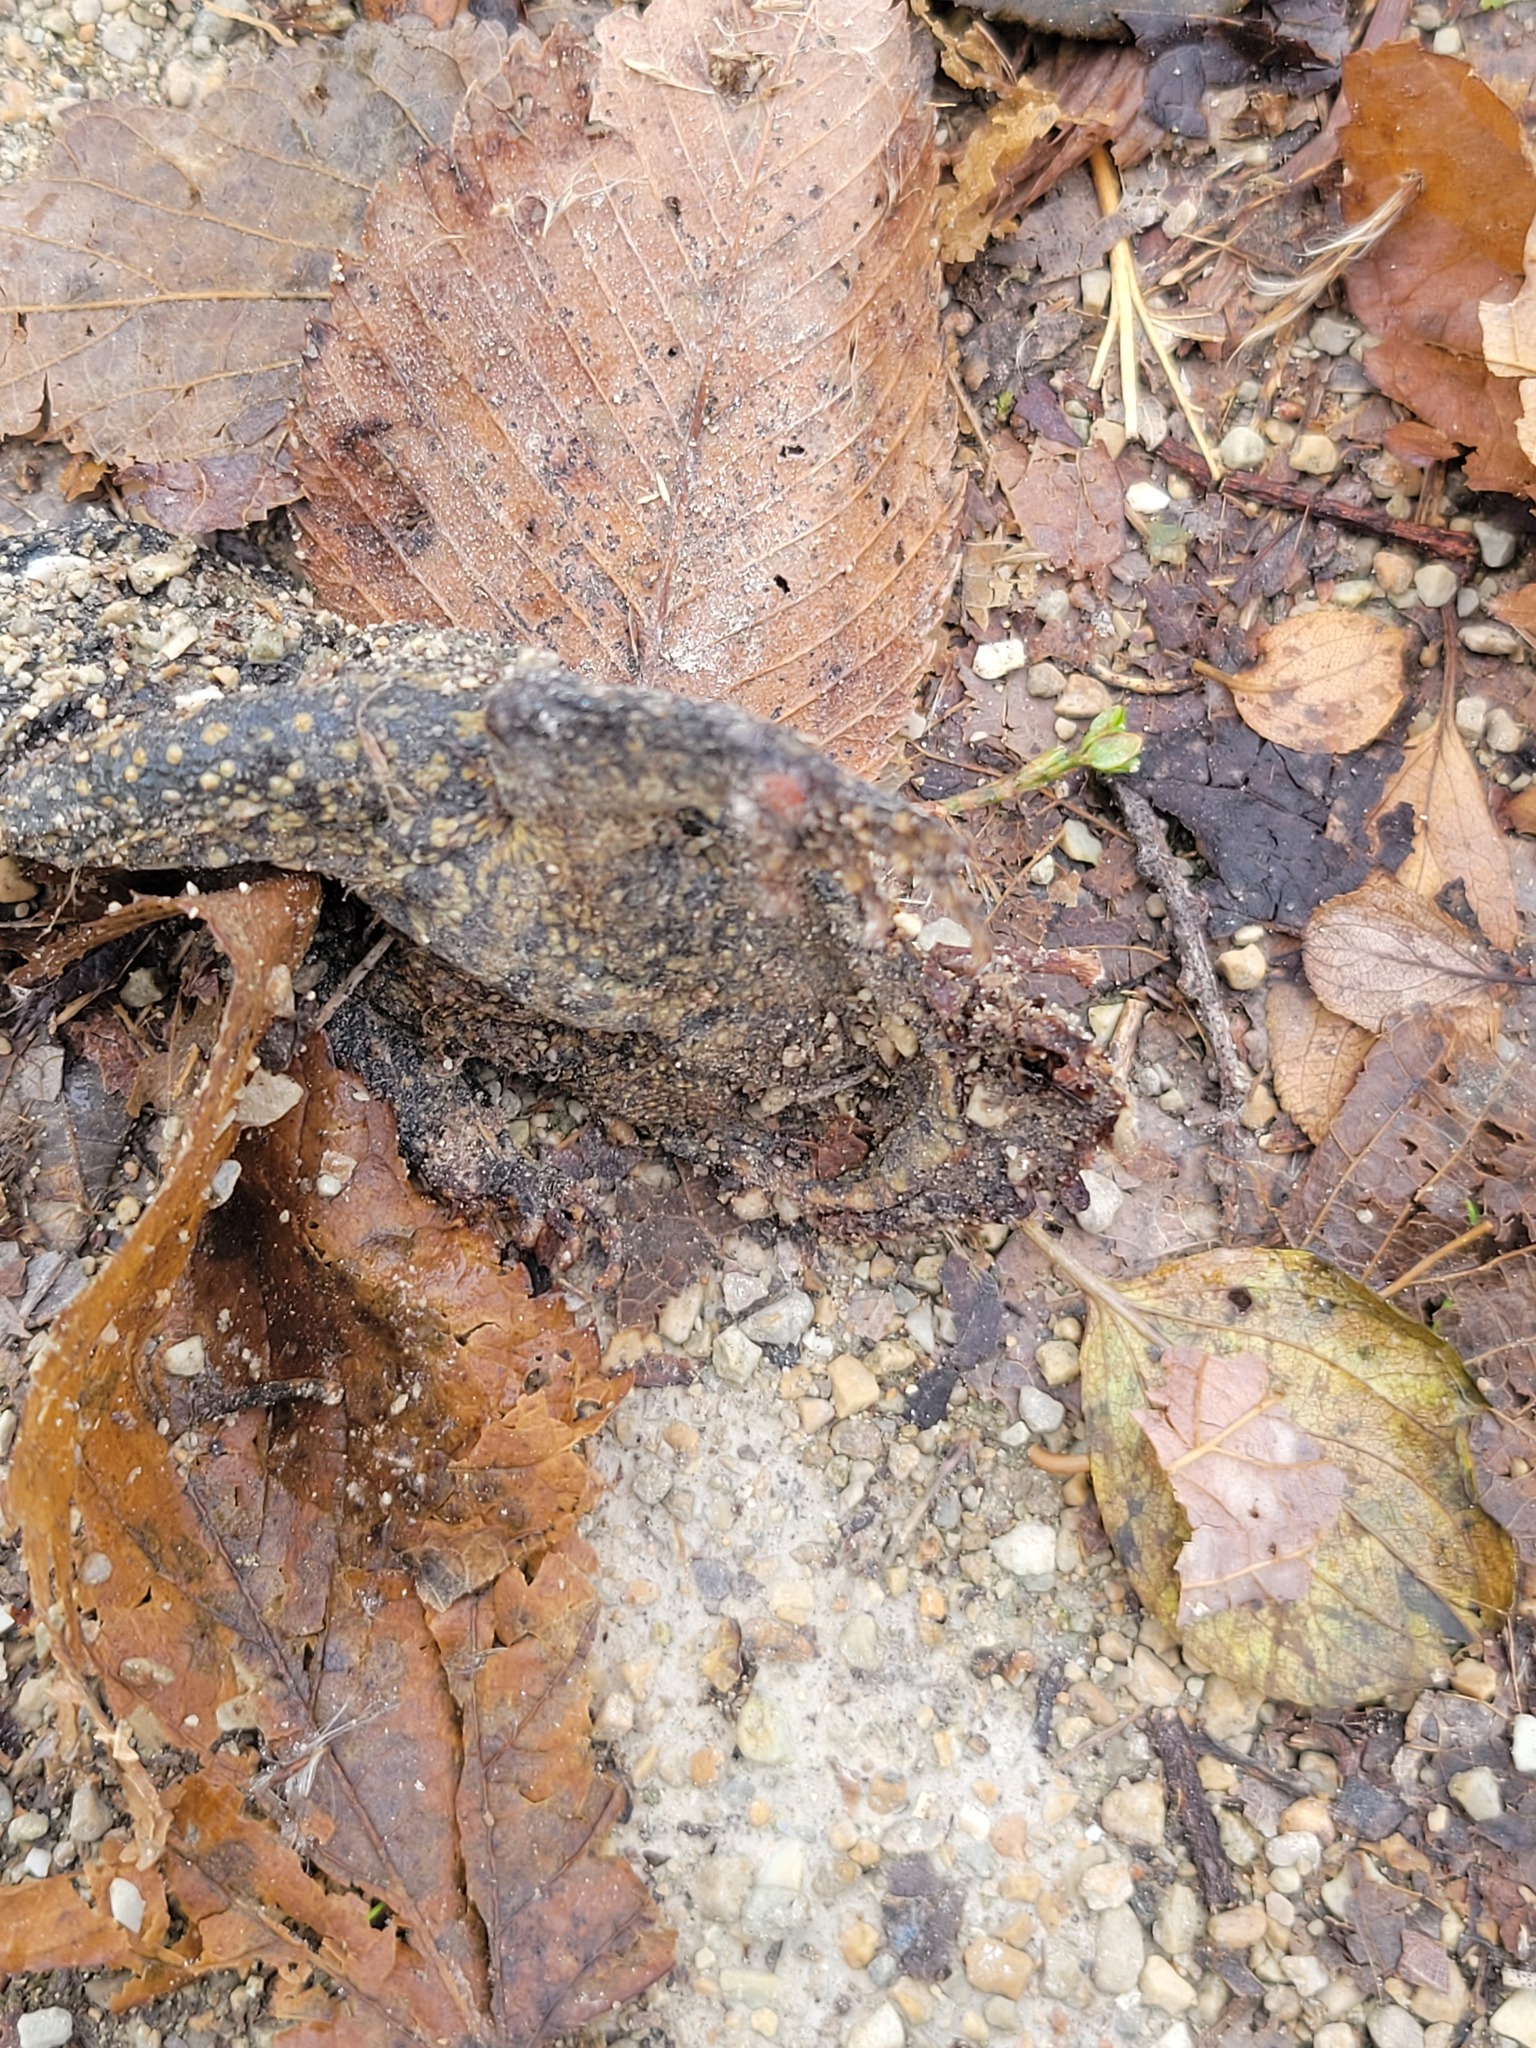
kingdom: Animalia
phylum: Chordata
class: Amphibia
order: Anura
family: Bufonidae
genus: Anaxyrus
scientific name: Anaxyrus americanus
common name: American toad
